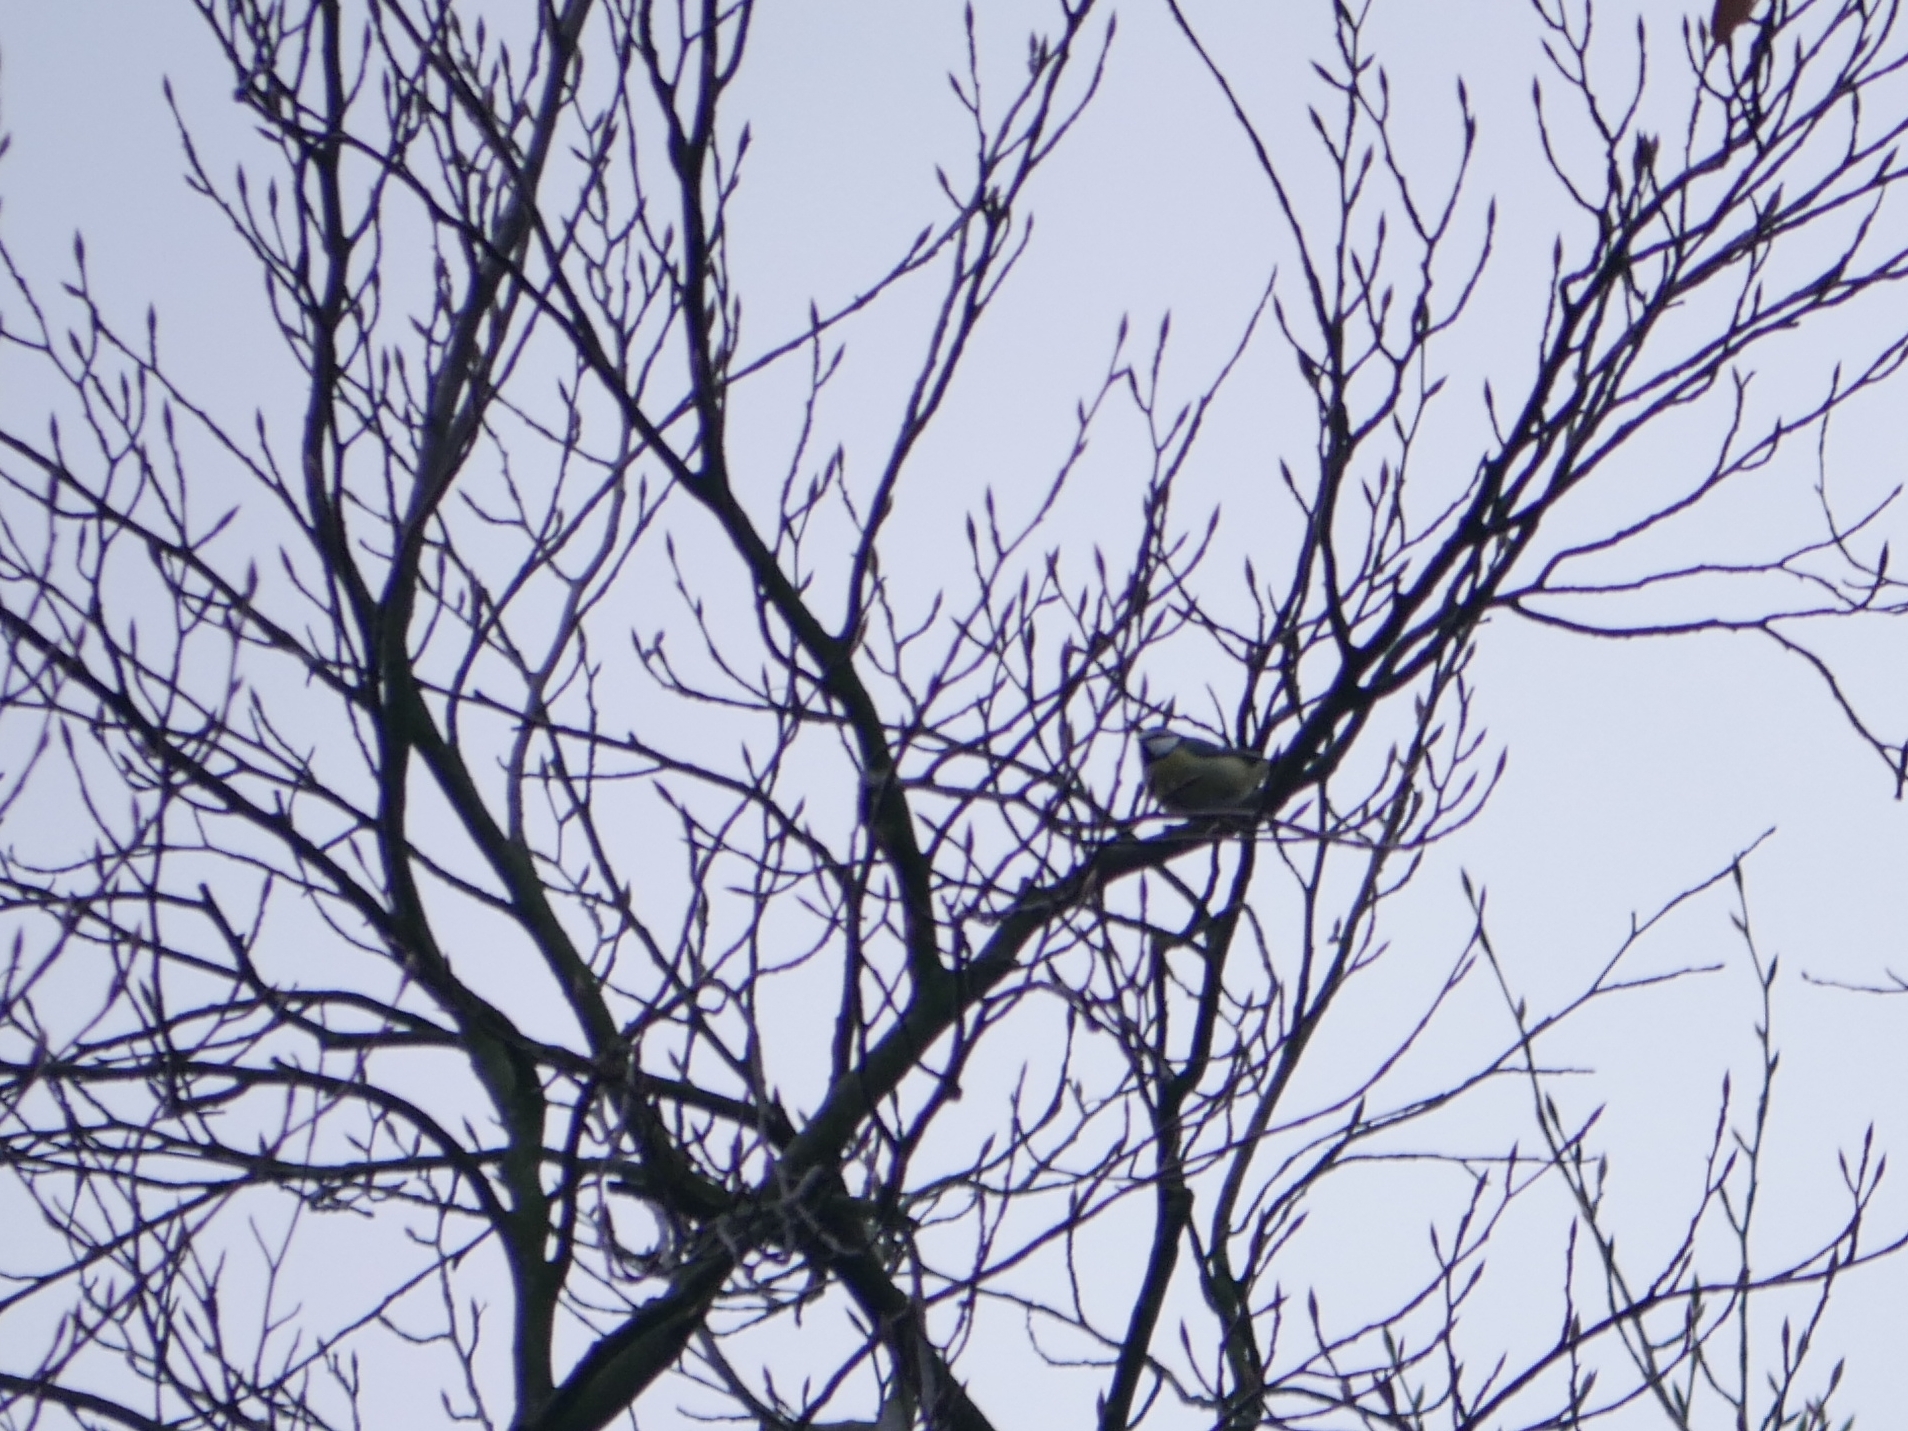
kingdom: Animalia
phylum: Chordata
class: Aves
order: Passeriformes
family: Paridae
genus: Cyanistes
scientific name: Cyanistes caeruleus
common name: Eurasian blue tit
